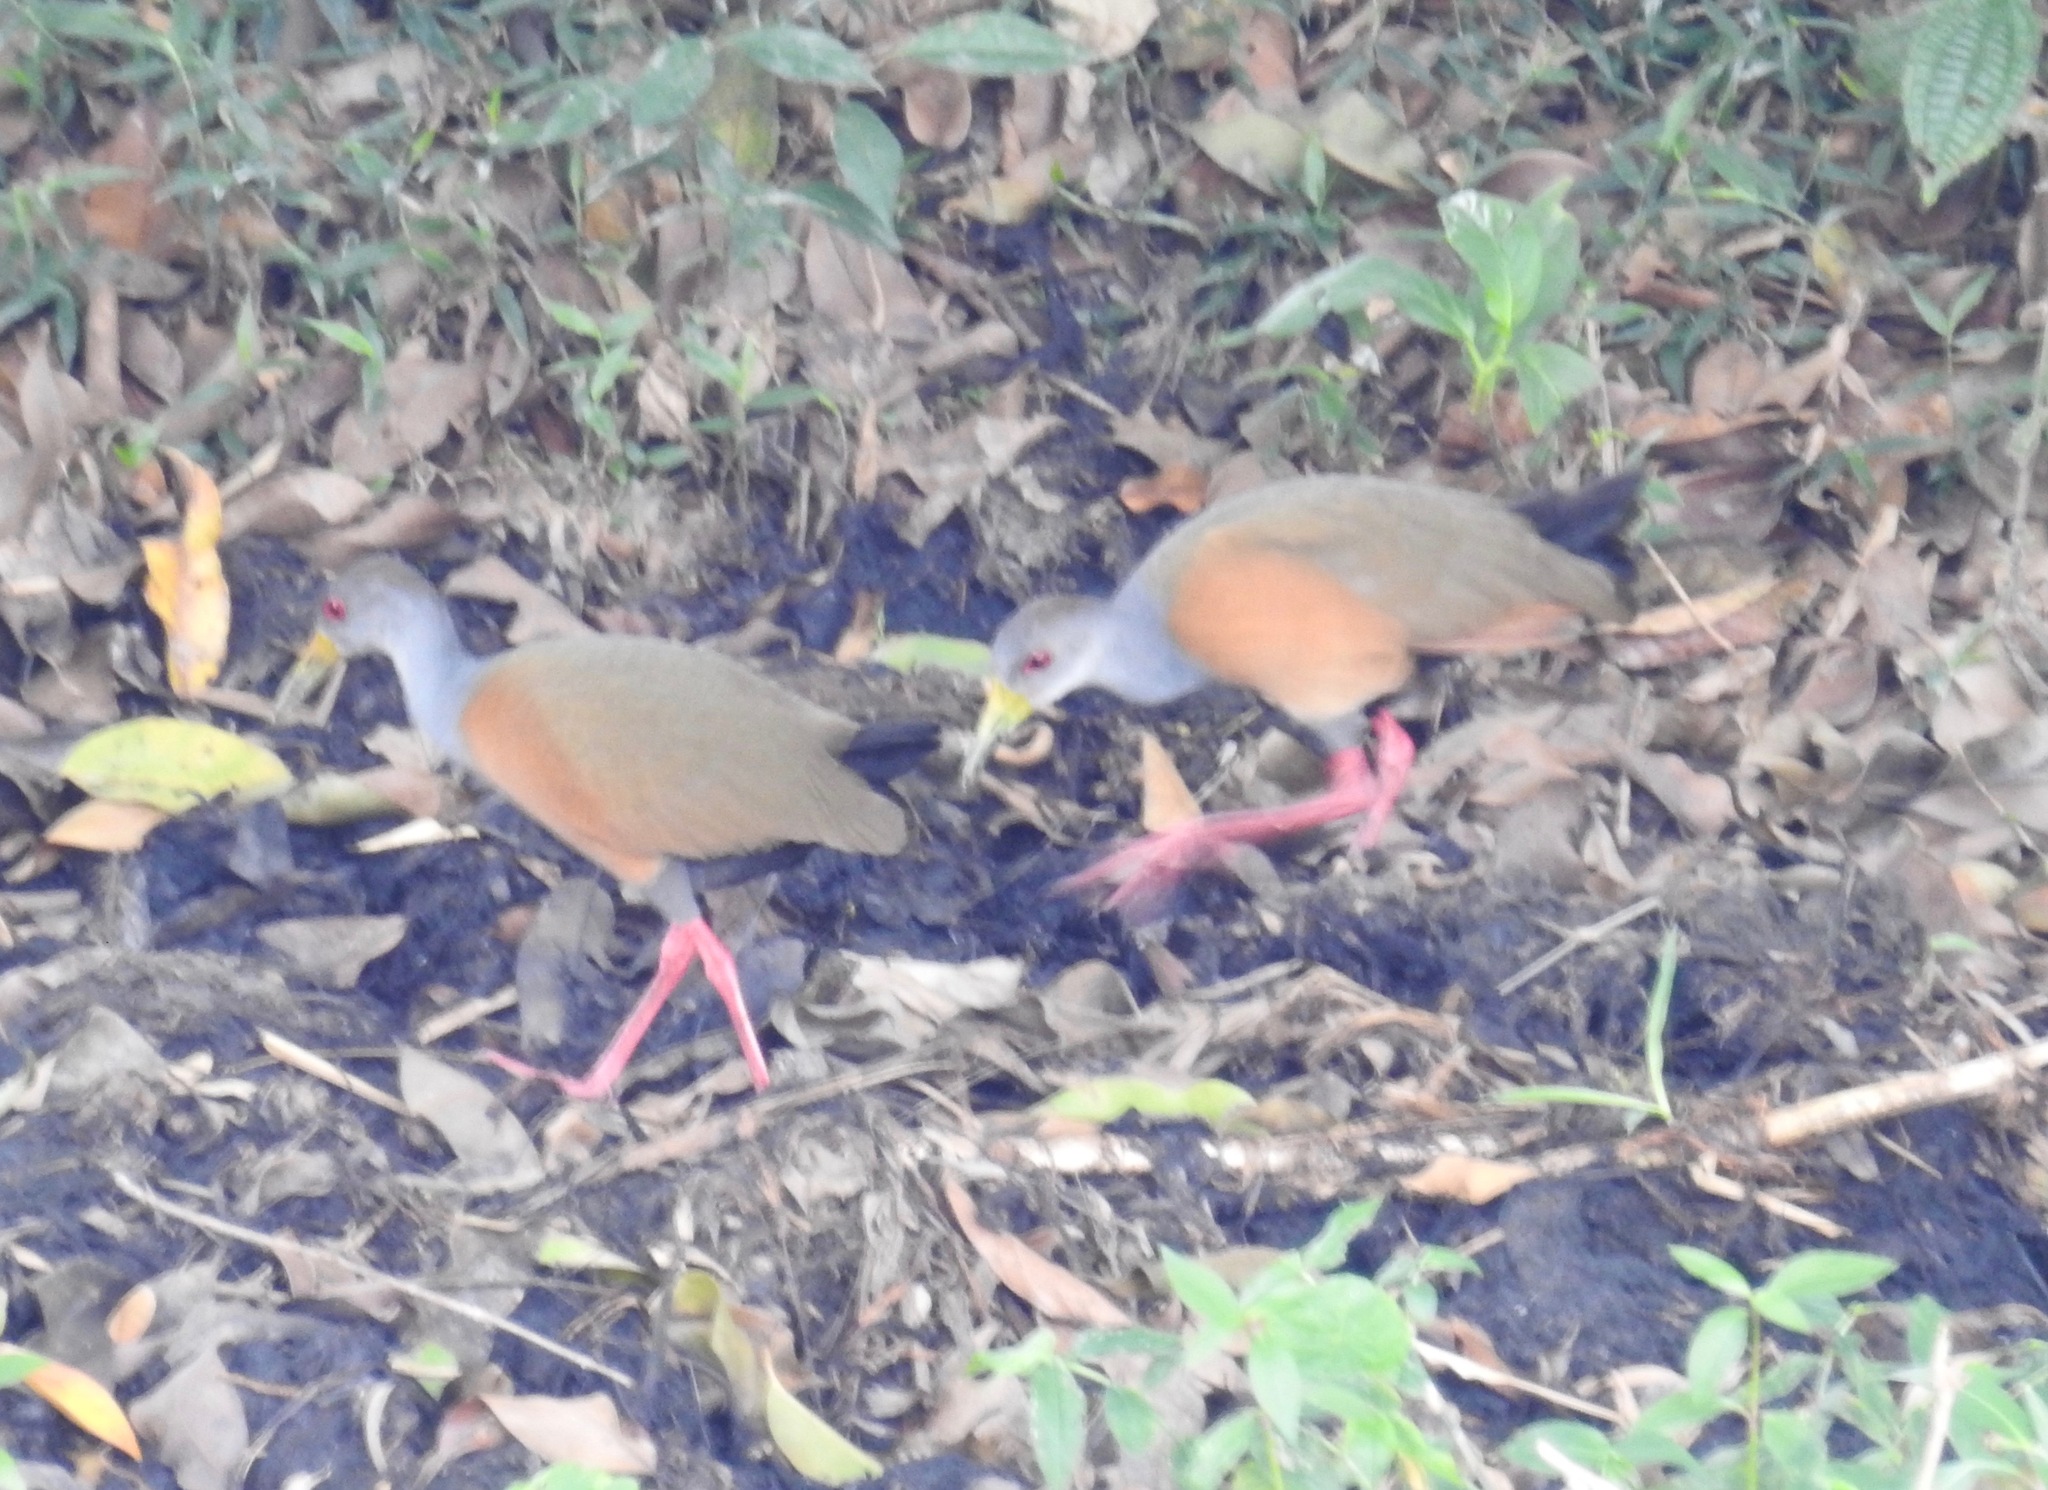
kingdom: Animalia
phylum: Chordata
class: Aves
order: Gruiformes
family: Rallidae
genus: Aramides
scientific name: Aramides cajanea
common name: Gray-necked wood-rail
